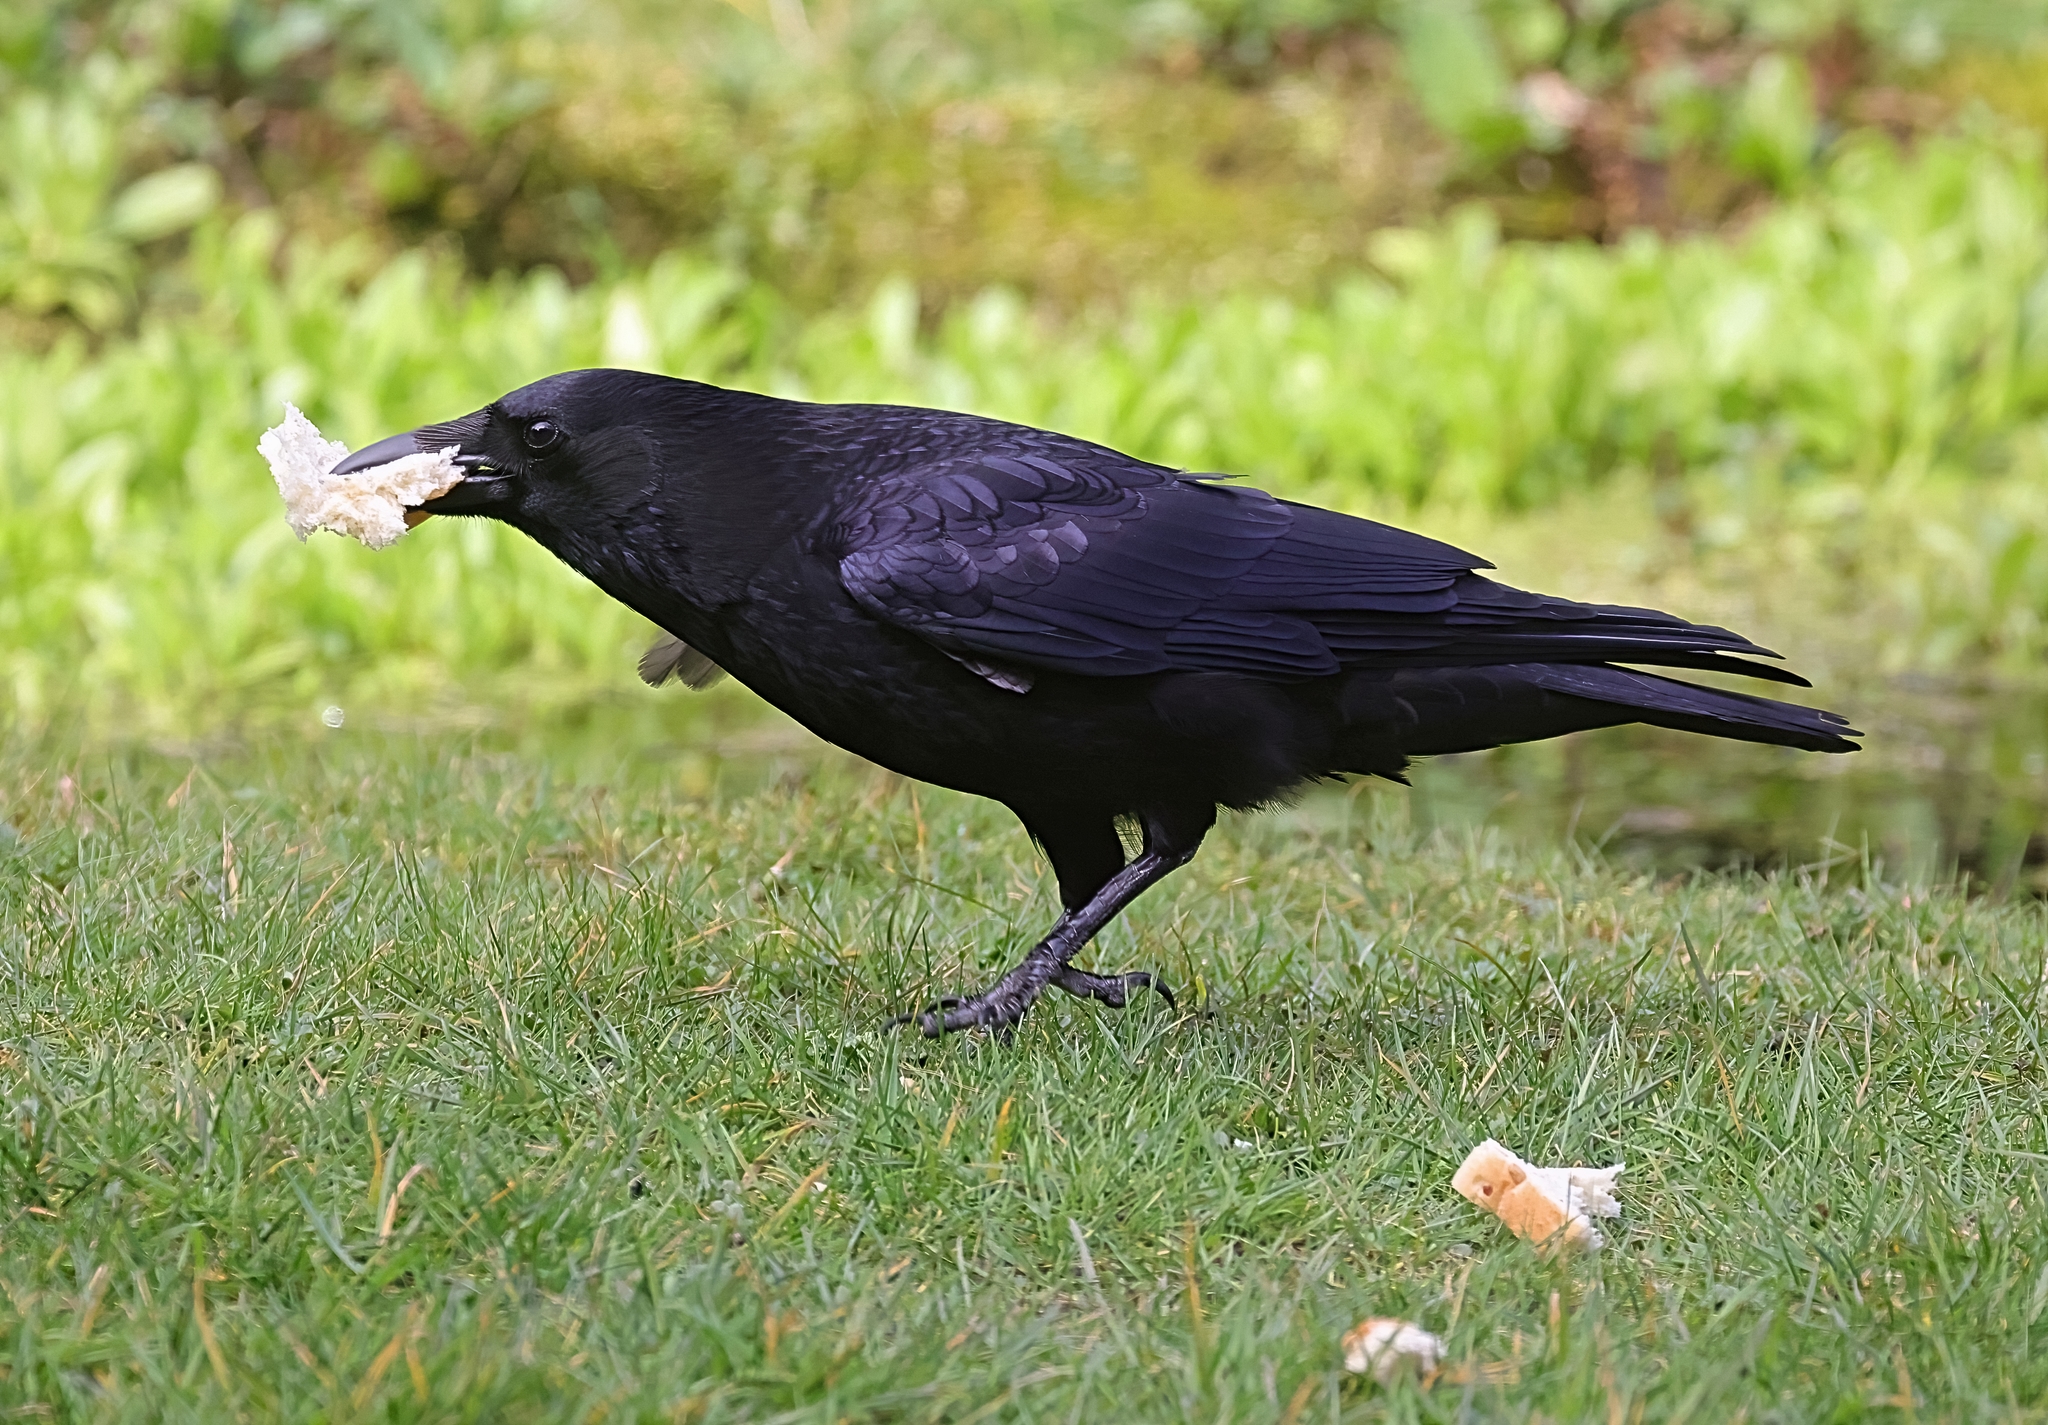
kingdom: Animalia
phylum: Chordata
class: Aves
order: Passeriformes
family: Corvidae
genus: Corvus
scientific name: Corvus corone
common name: Carrion crow
